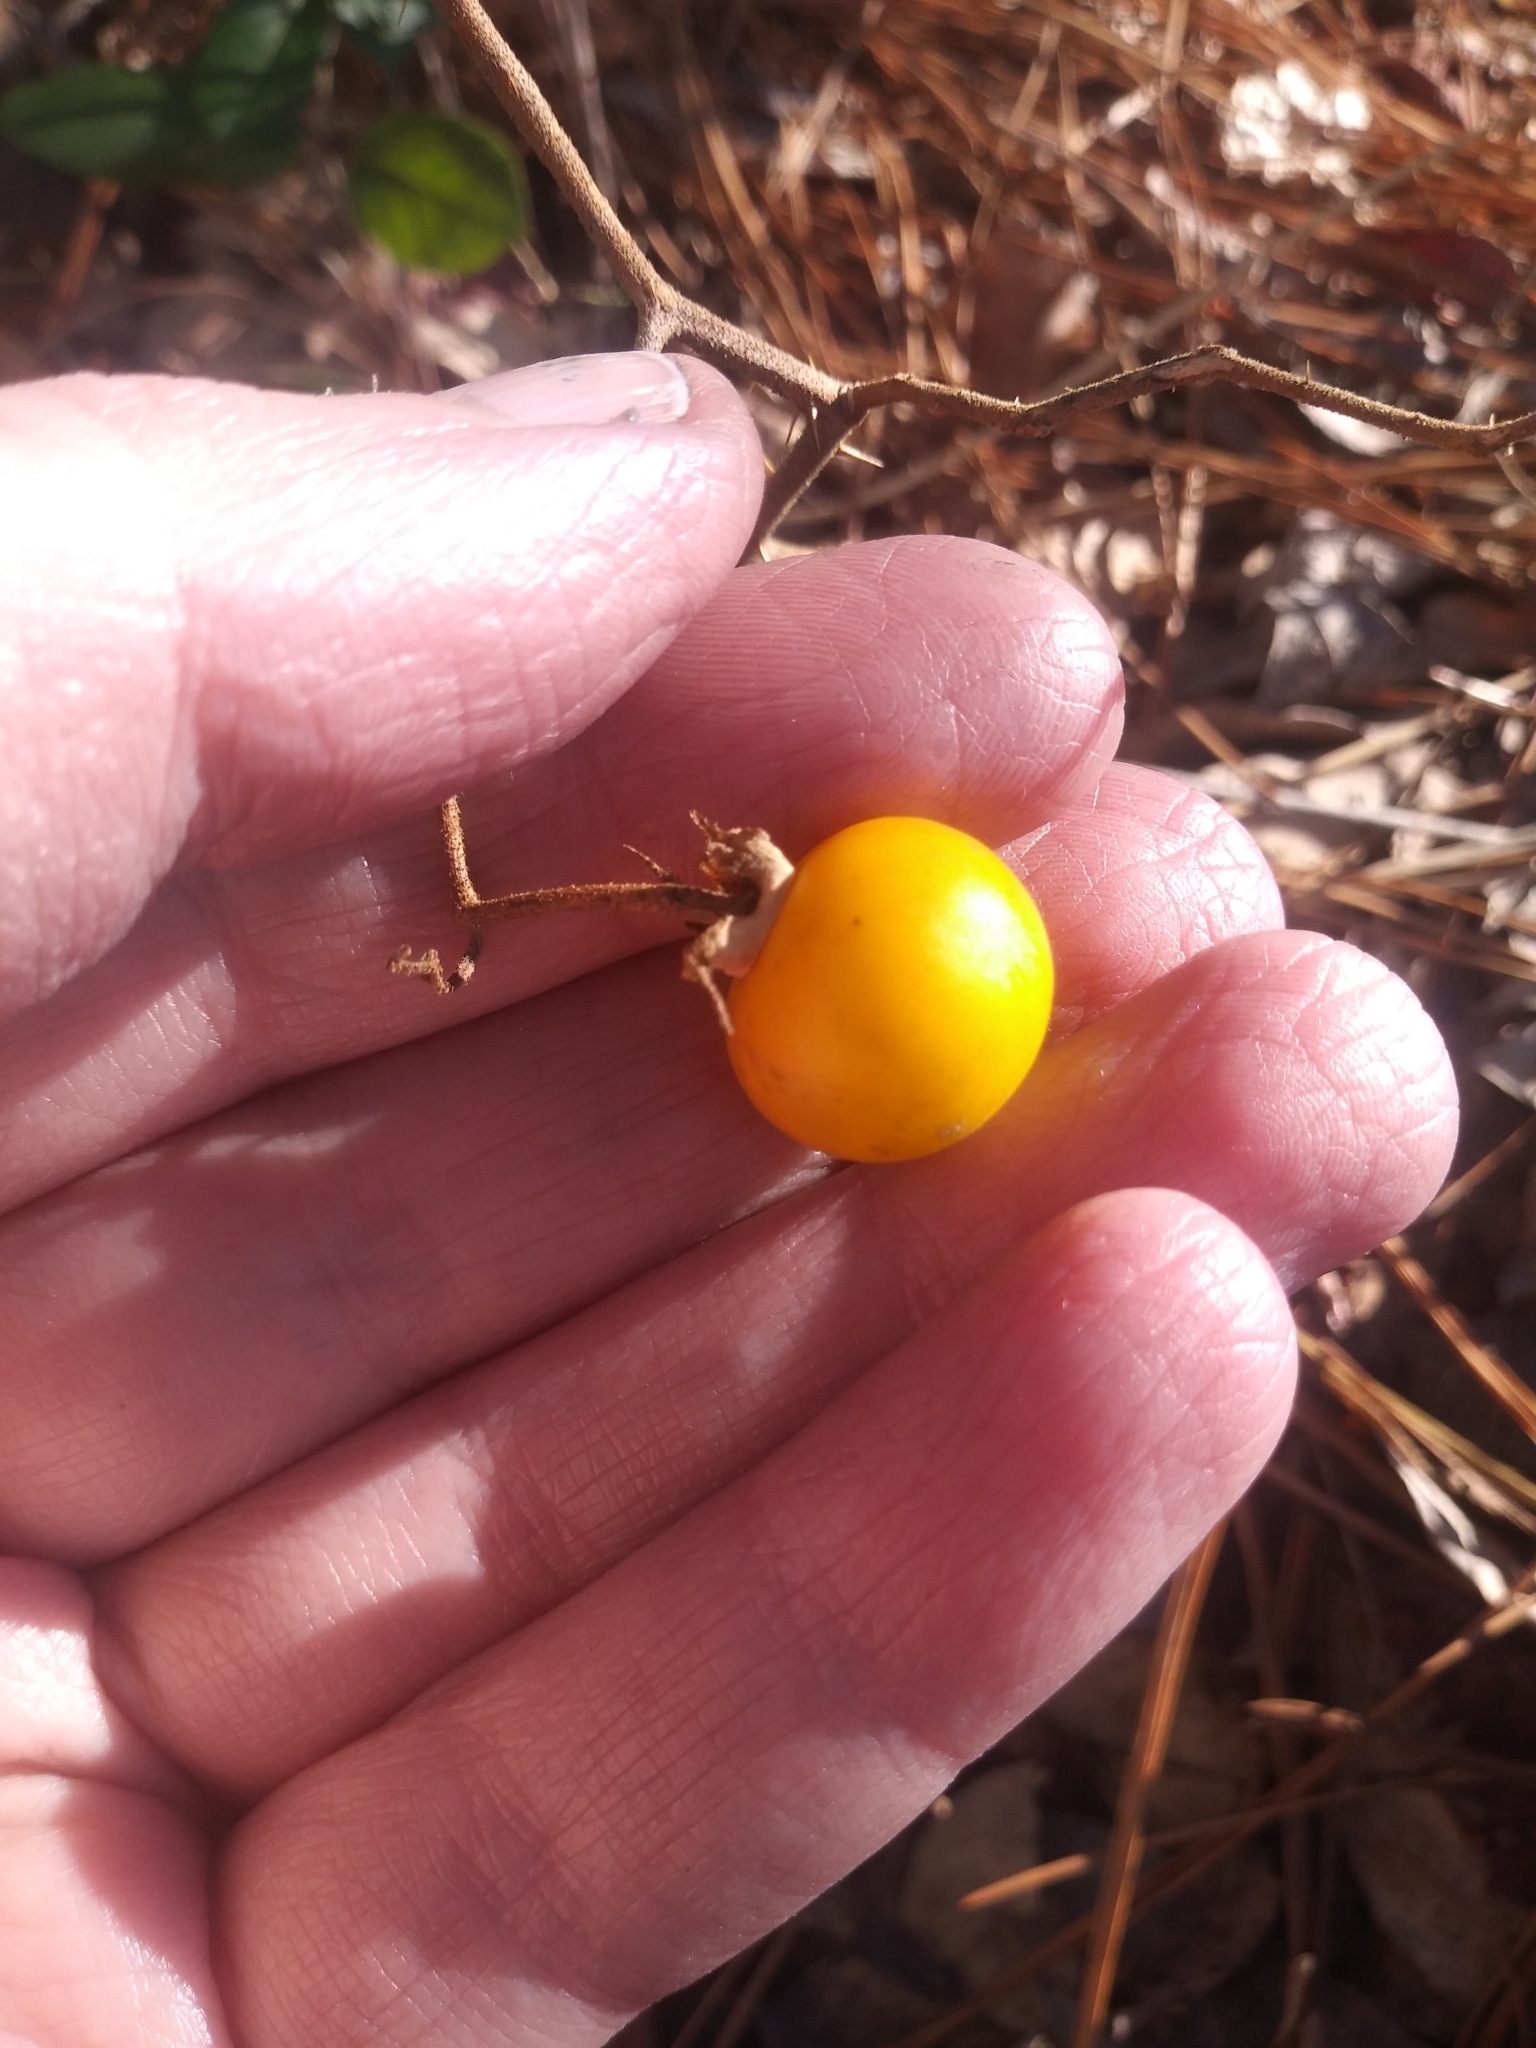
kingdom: Plantae
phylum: Tracheophyta
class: Magnoliopsida
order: Solanales
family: Solanaceae
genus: Solanum
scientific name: Solanum carolinense
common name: Horse-nettle
